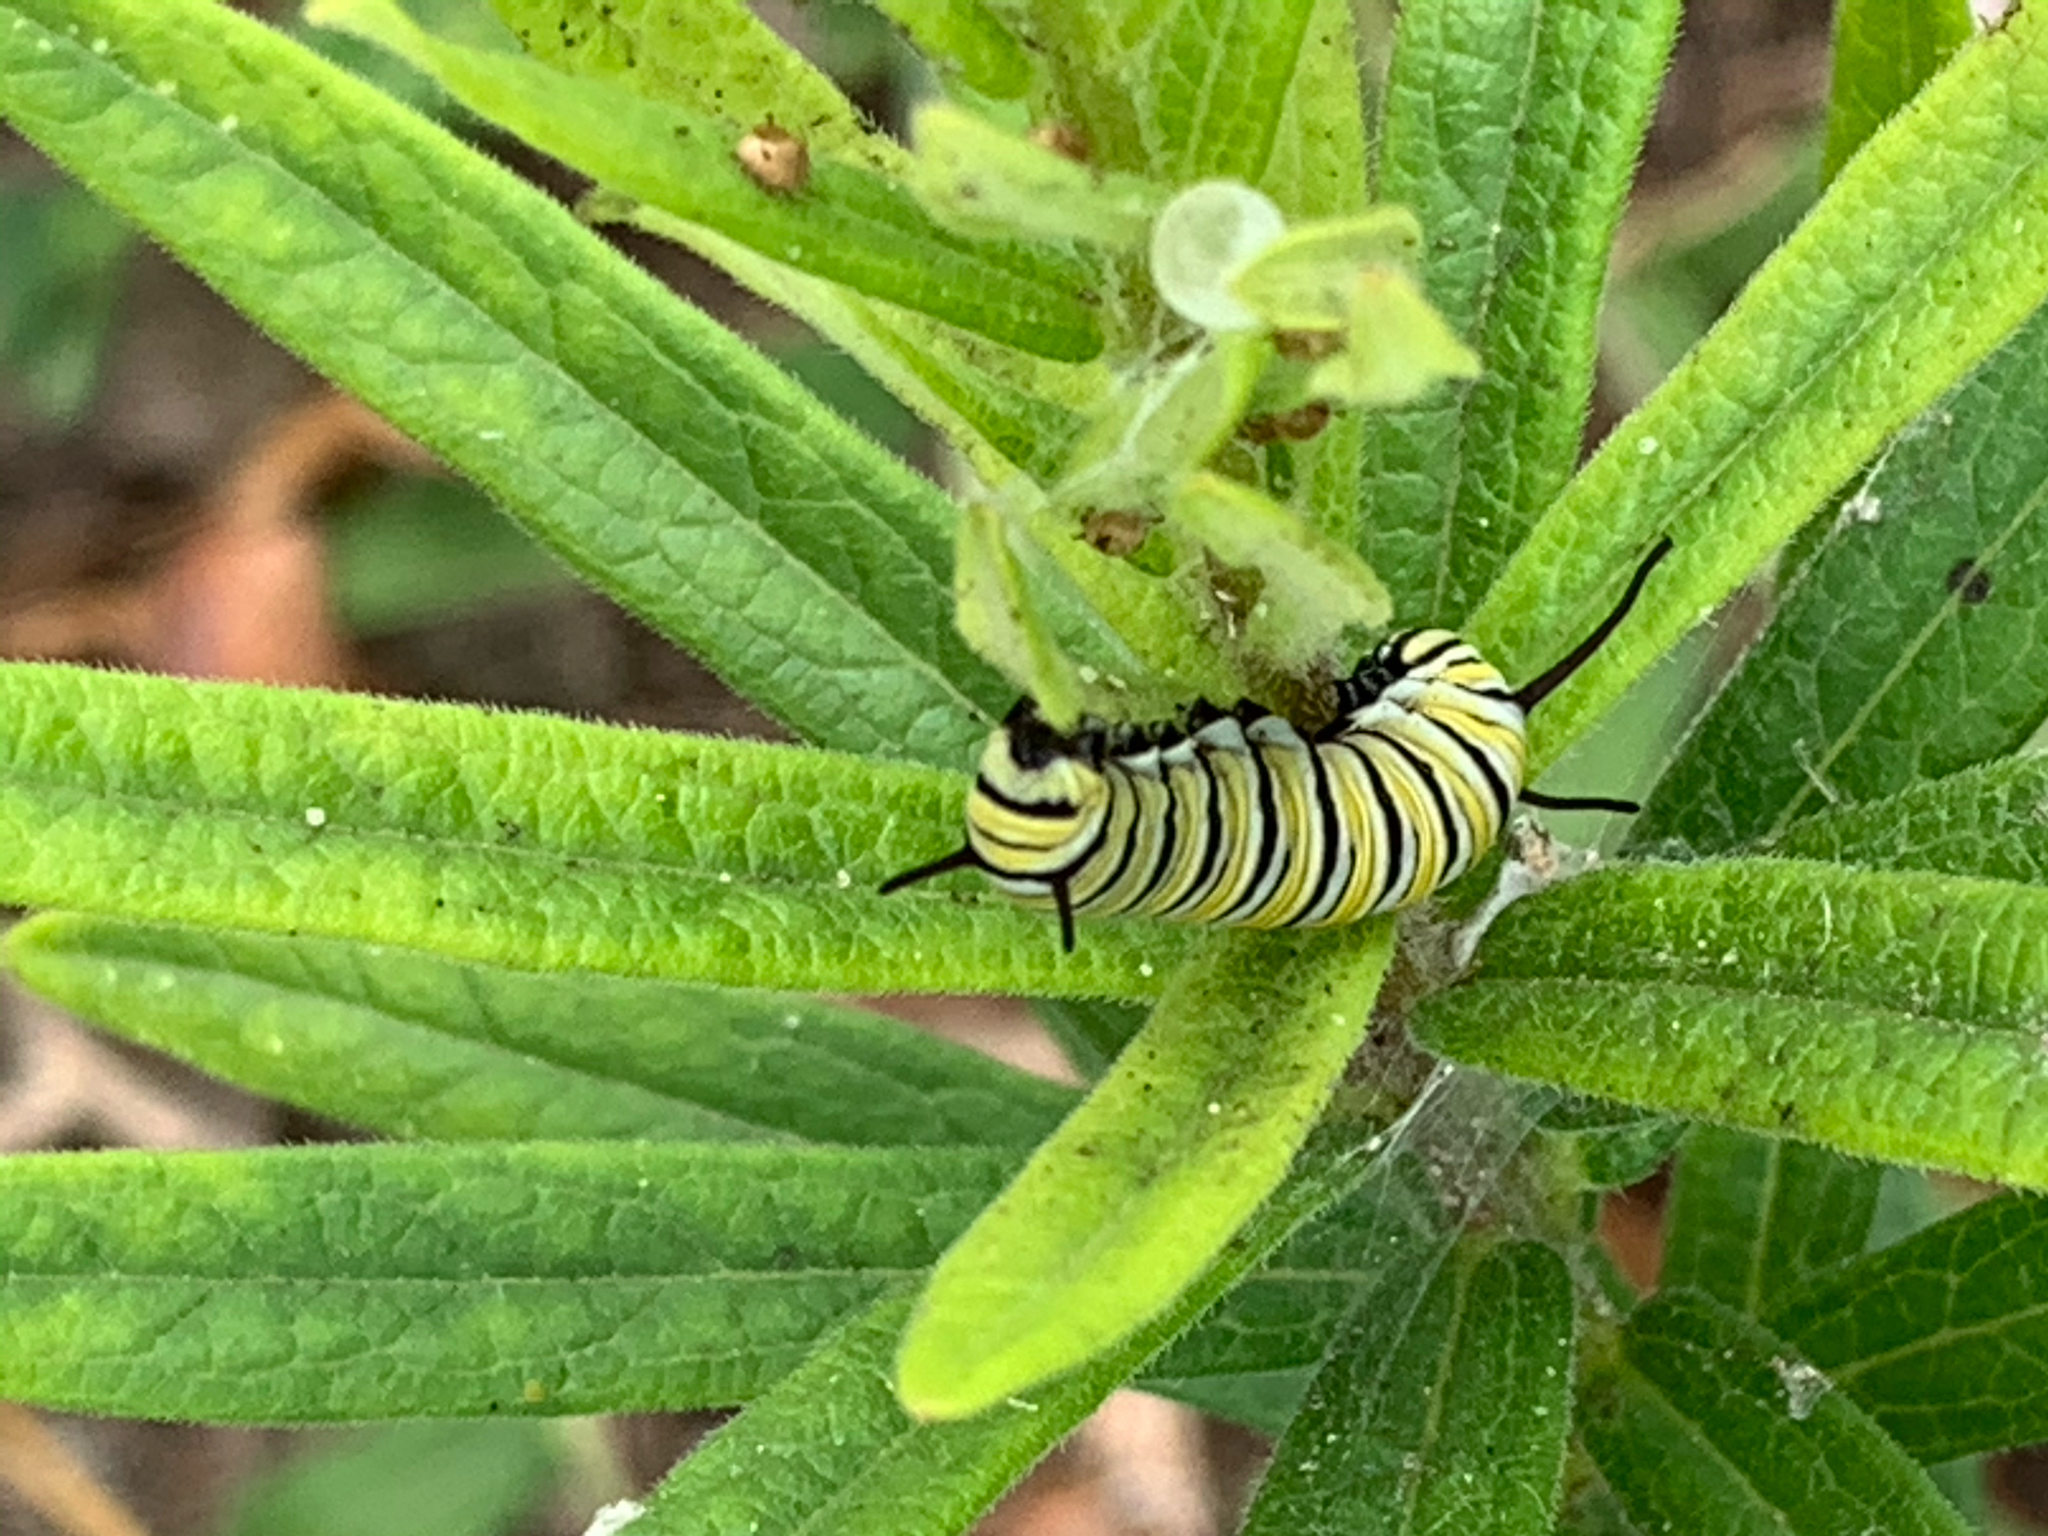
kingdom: Animalia
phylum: Arthropoda
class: Insecta
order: Lepidoptera
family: Nymphalidae
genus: Danaus
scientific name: Danaus plexippus
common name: Monarch
